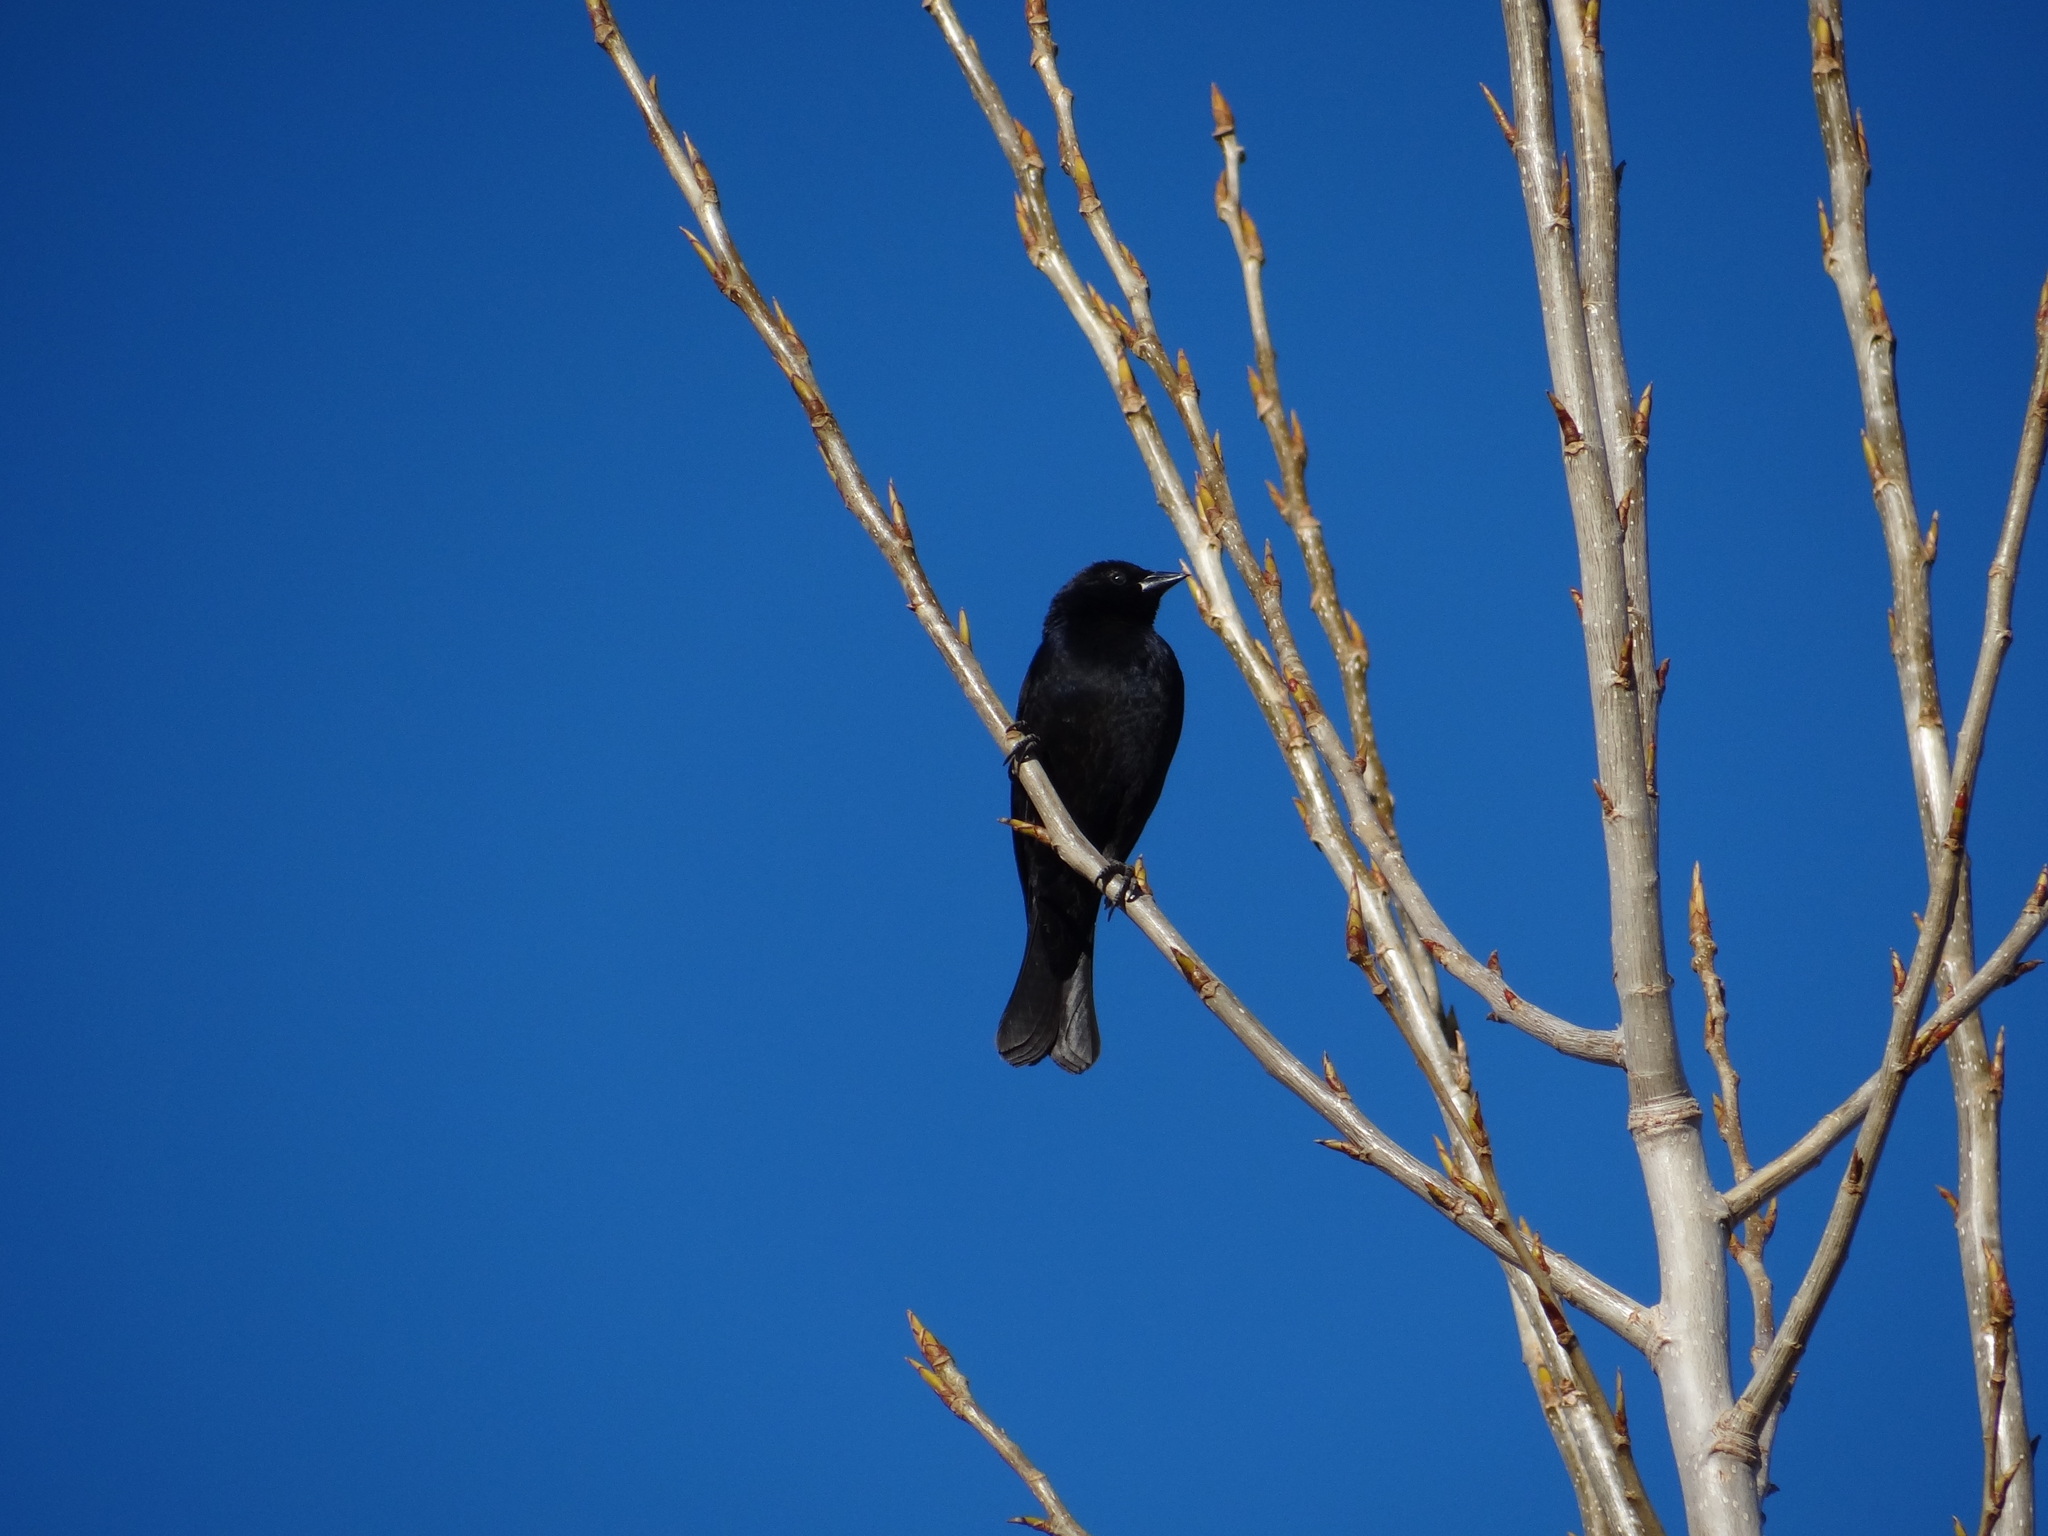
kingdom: Animalia
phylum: Chordata
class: Aves
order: Passeriformes
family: Icteridae
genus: Molothrus
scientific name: Molothrus rufoaxillaris
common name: Screaming cowbird
